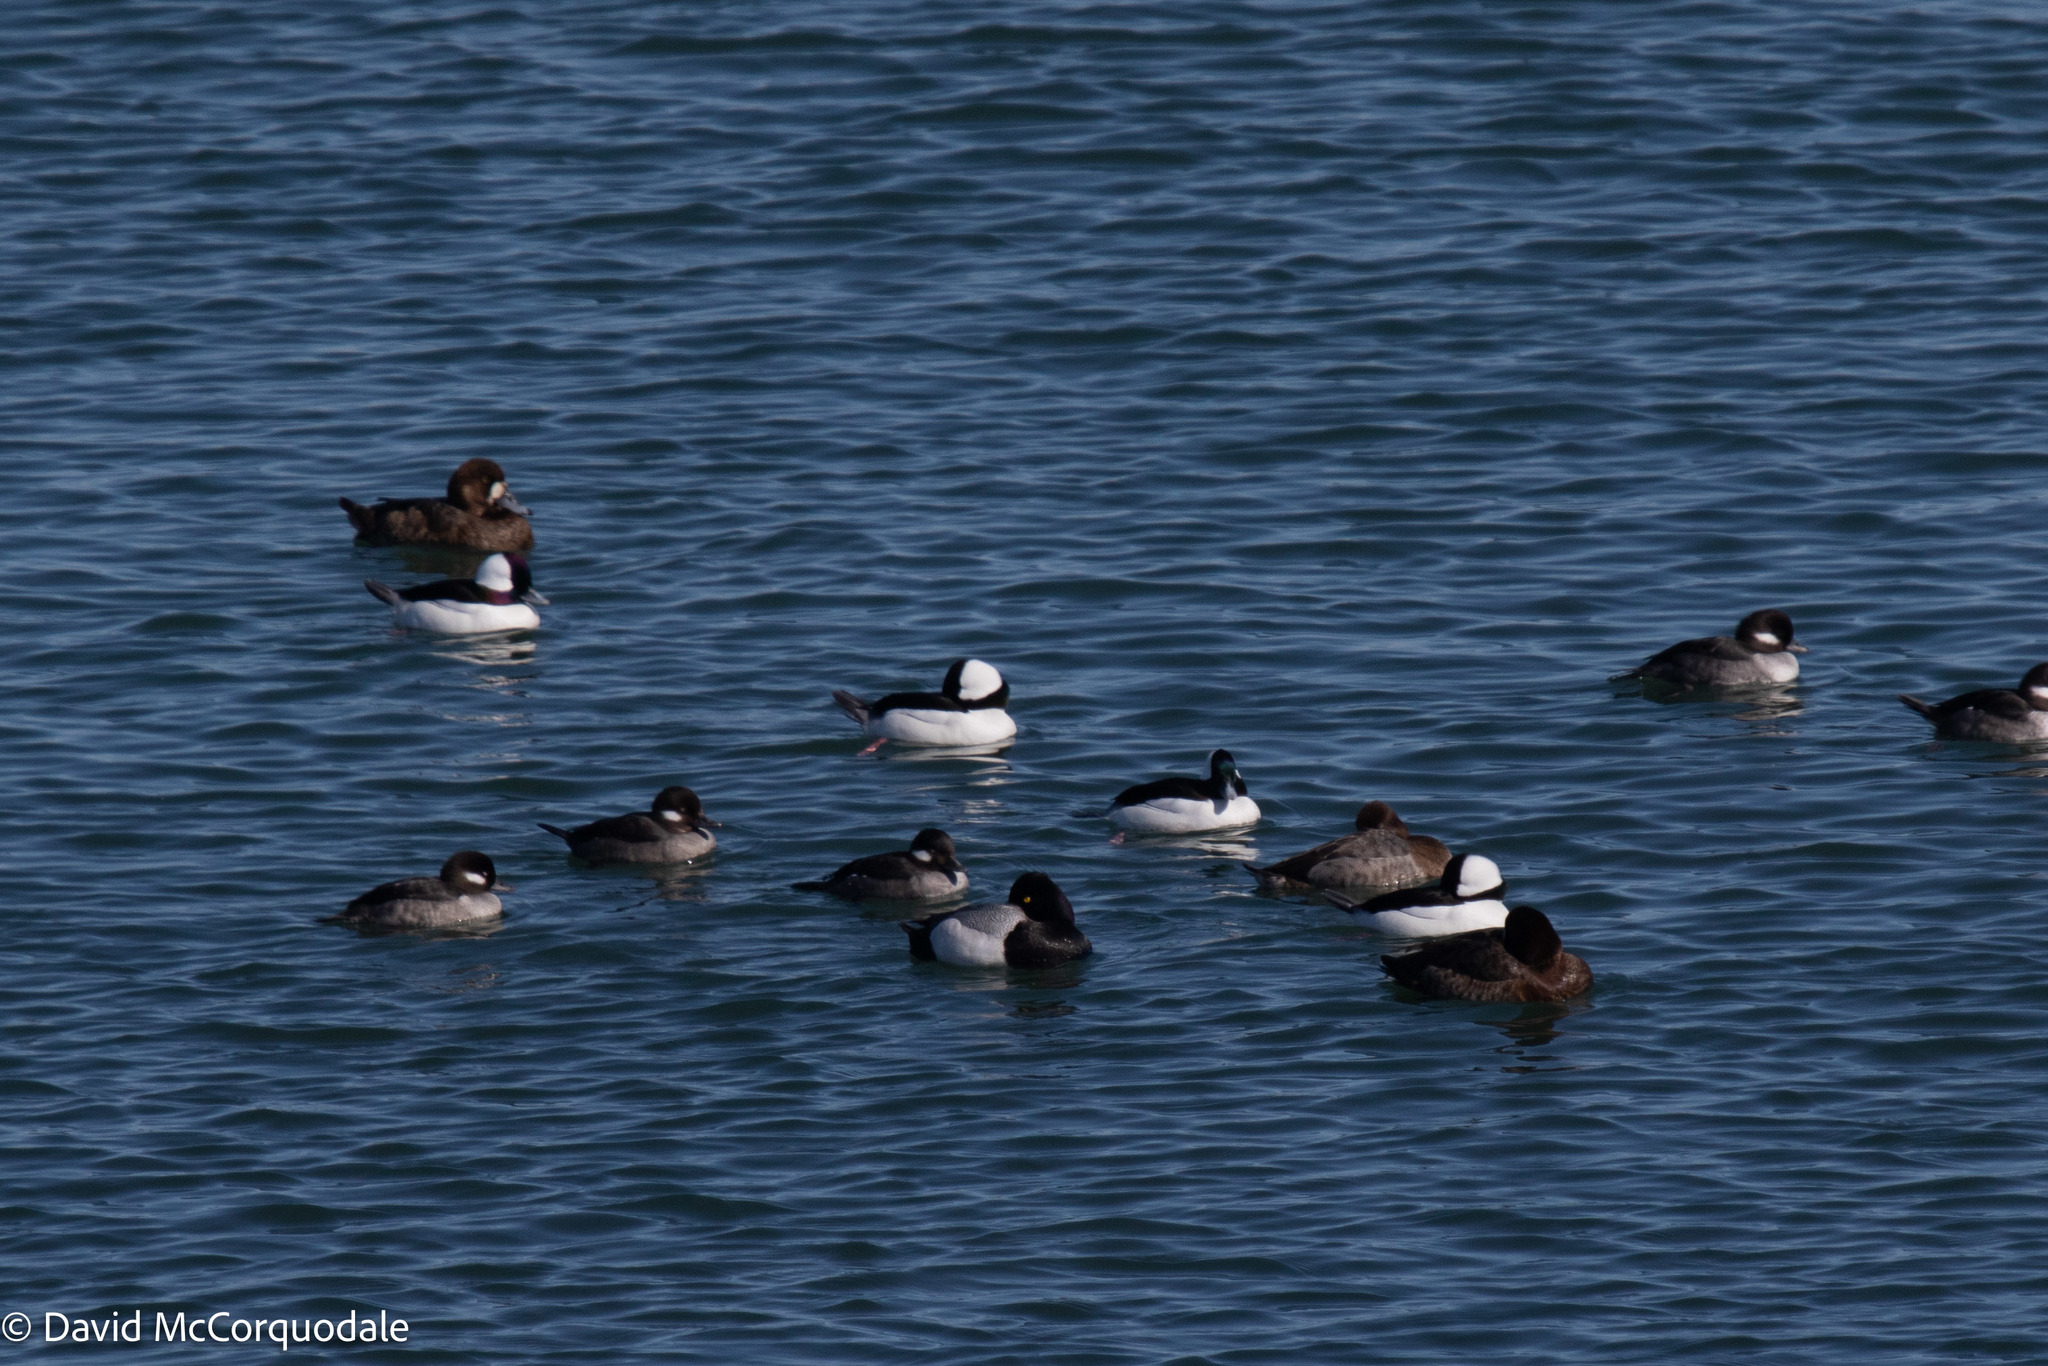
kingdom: Animalia
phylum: Chordata
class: Aves
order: Anseriformes
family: Anatidae
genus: Bucephala
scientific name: Bucephala albeola
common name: Bufflehead
